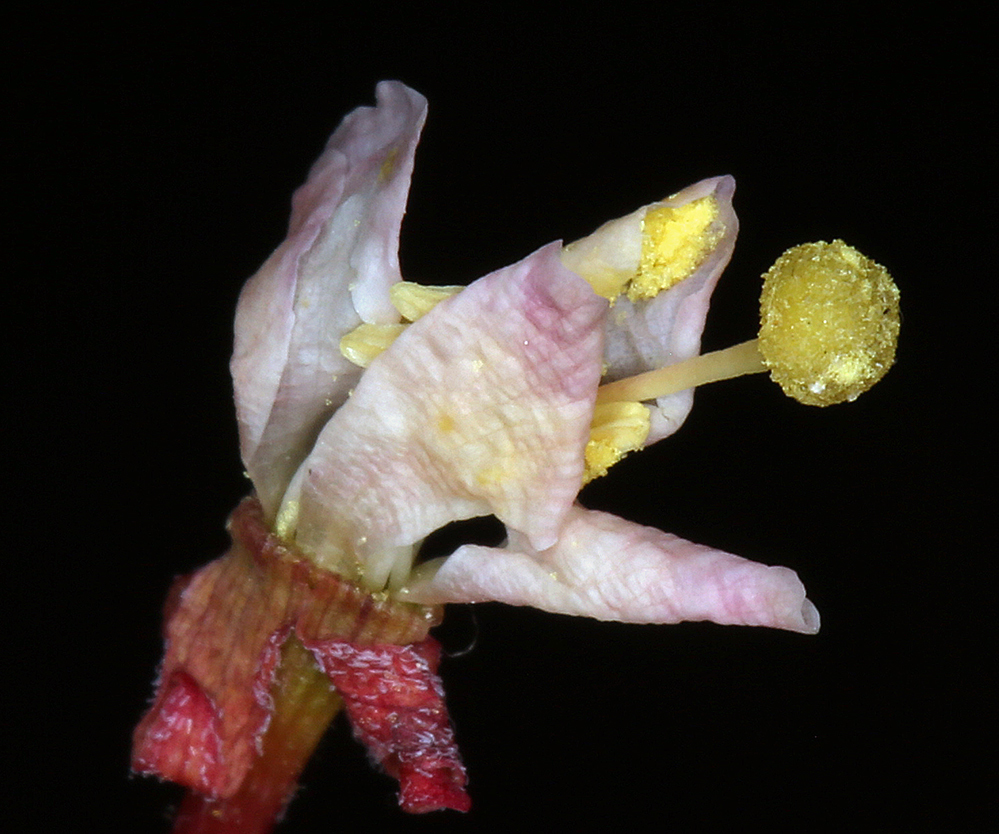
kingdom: Plantae
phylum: Tracheophyta
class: Magnoliopsida
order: Myrtales
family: Onagraceae
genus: Eremothera
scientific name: Eremothera refracta
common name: Narrowleaf suncup
